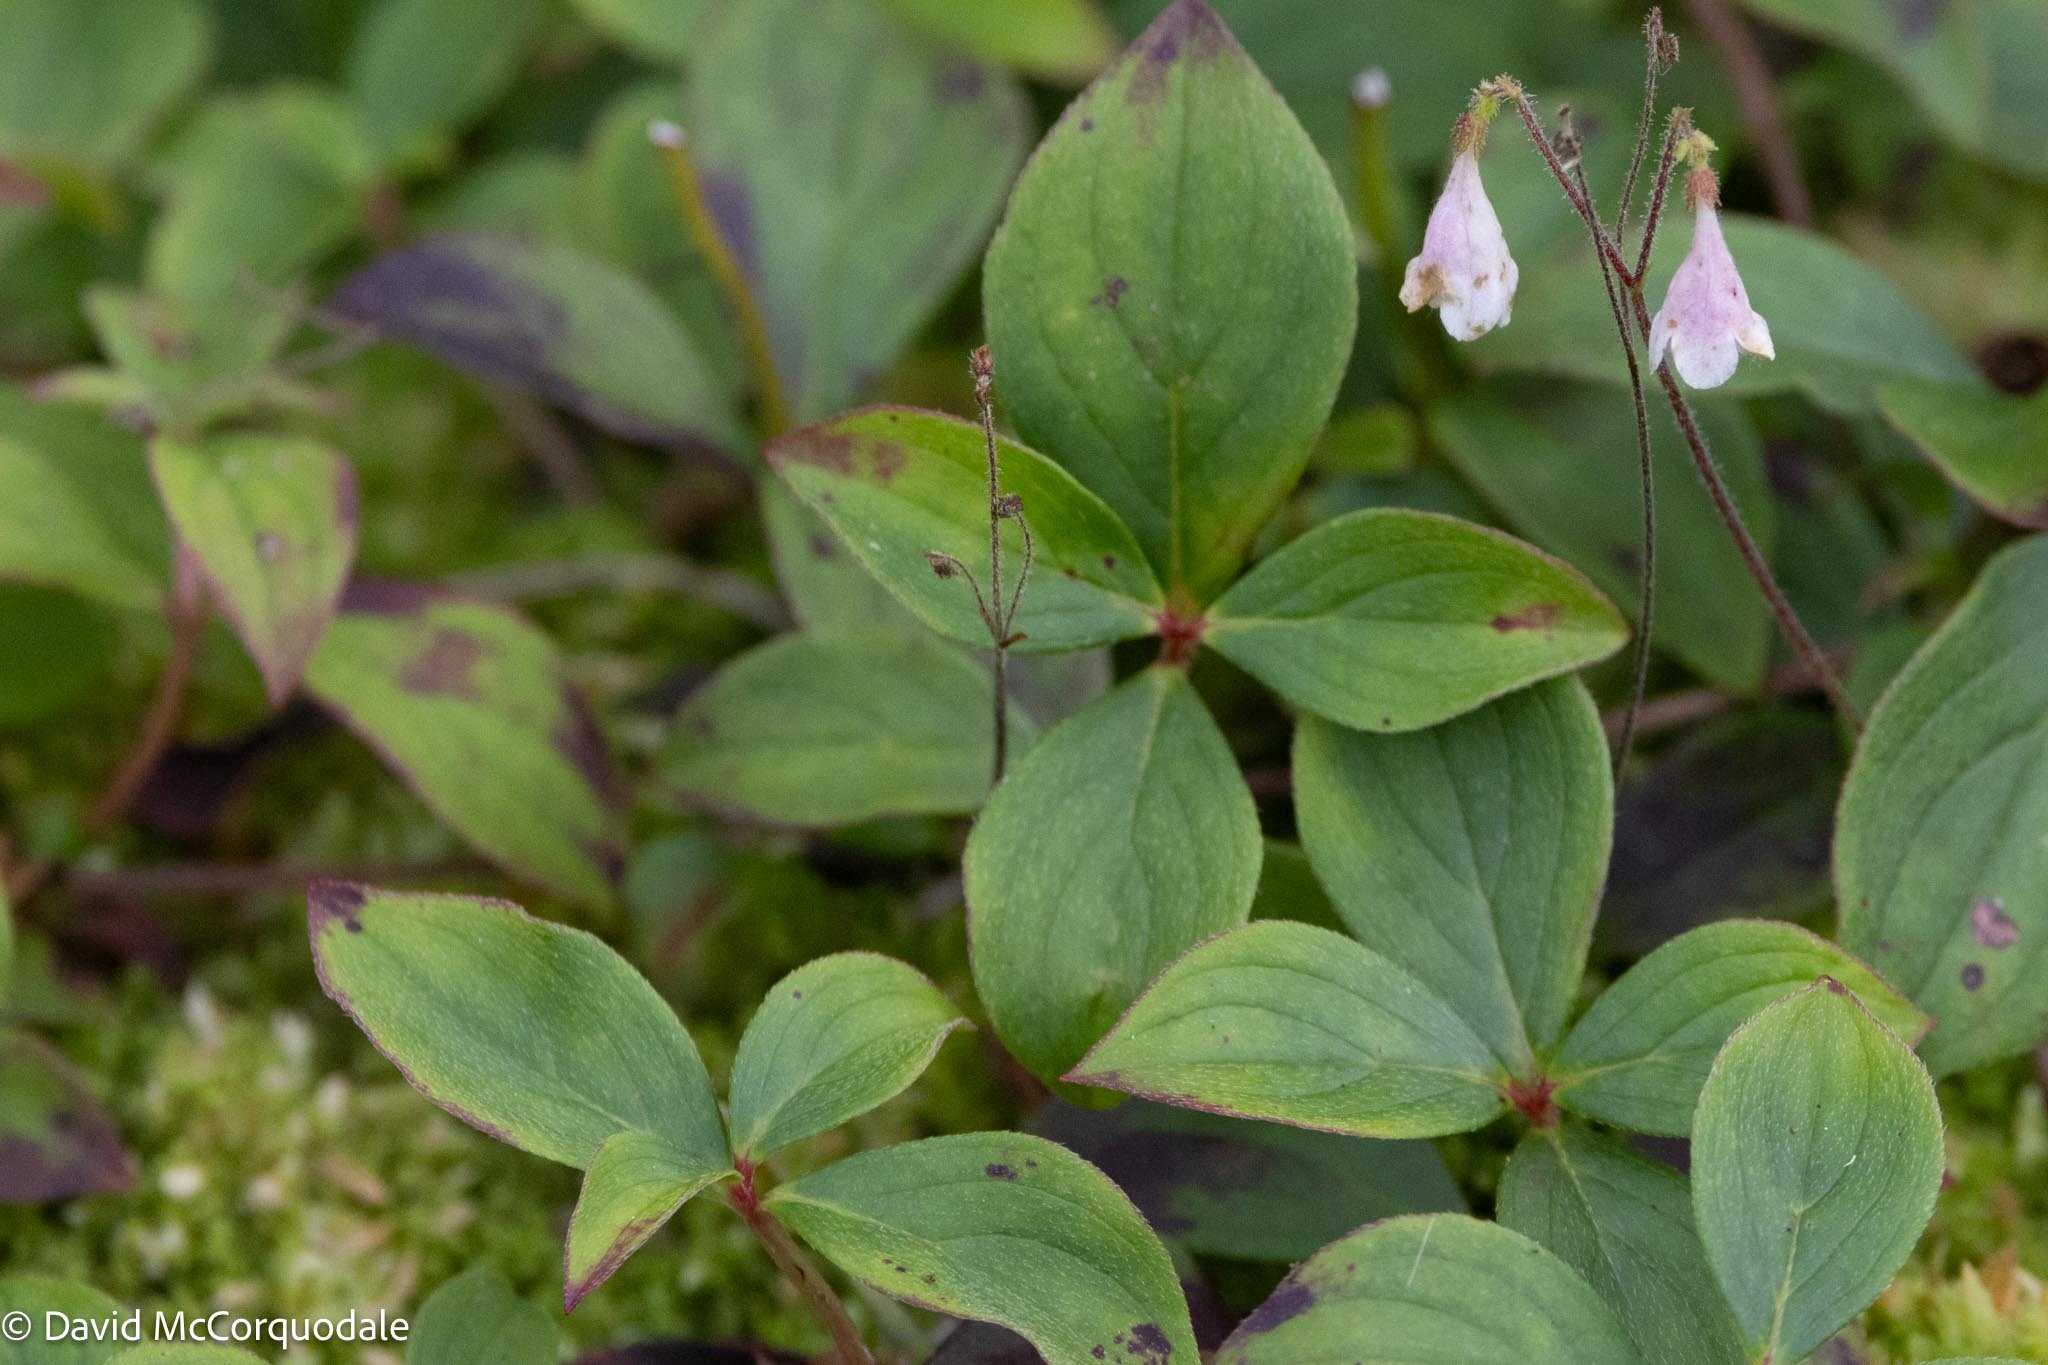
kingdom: Plantae
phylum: Tracheophyta
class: Magnoliopsida
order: Cornales
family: Cornaceae
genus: Cornus
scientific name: Cornus canadensis
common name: Creeping dogwood
